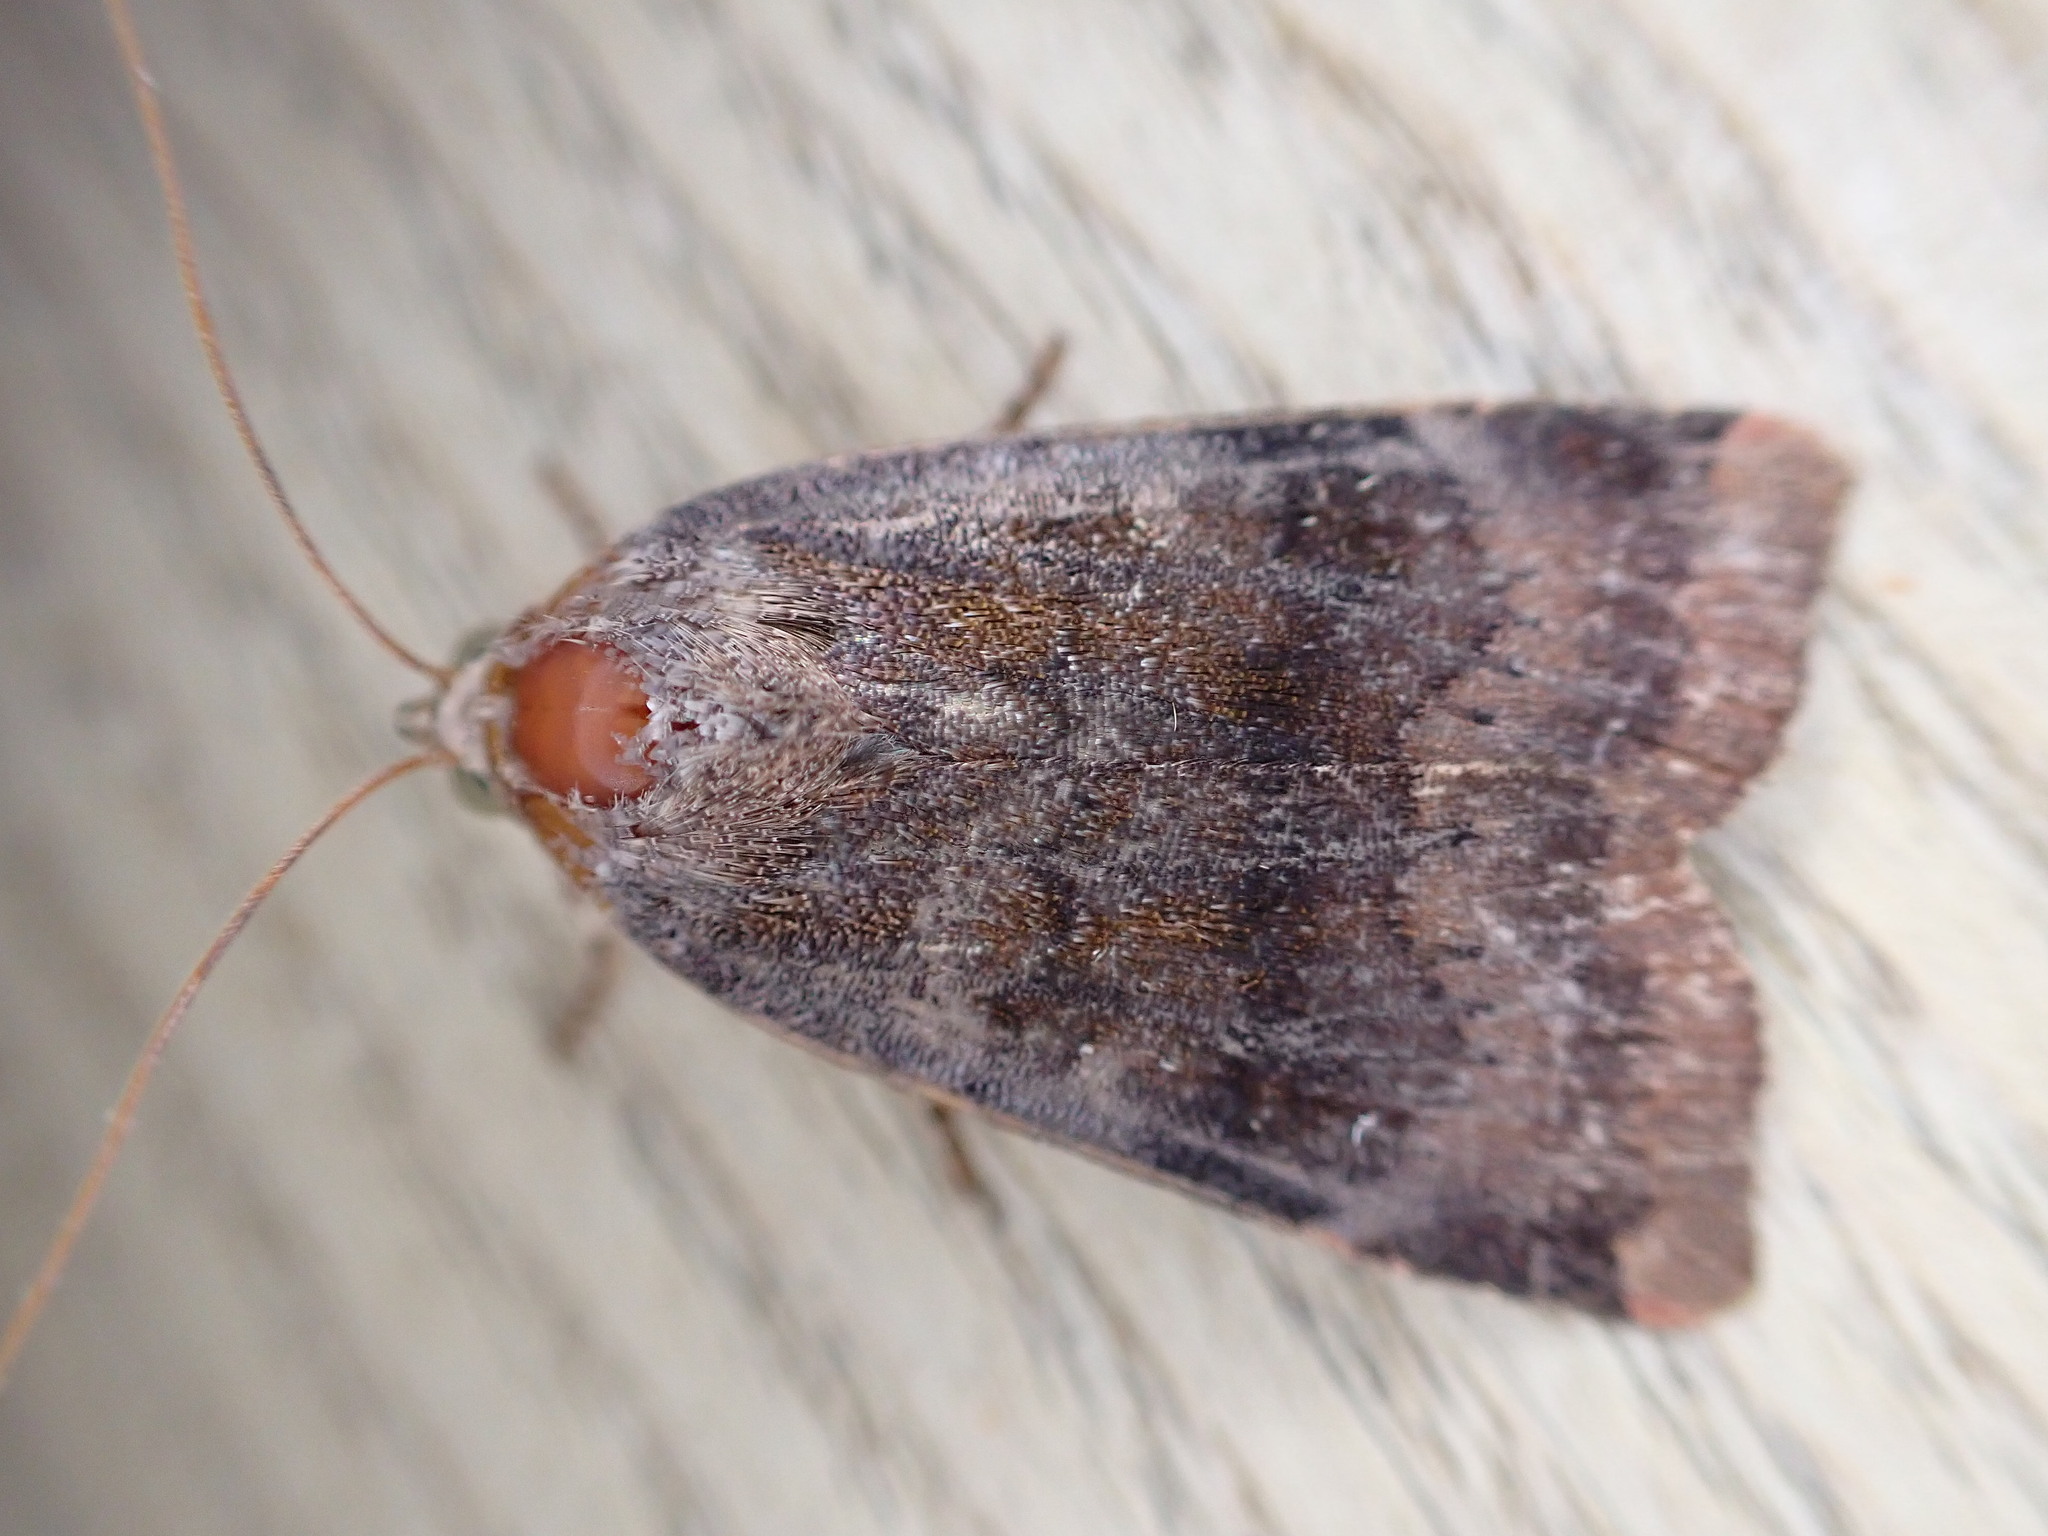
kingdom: Animalia
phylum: Arthropoda
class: Insecta
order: Lepidoptera
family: Noctuidae
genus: Noctua
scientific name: Noctua janthe
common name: Lesser broad-bordered yellow underwing
